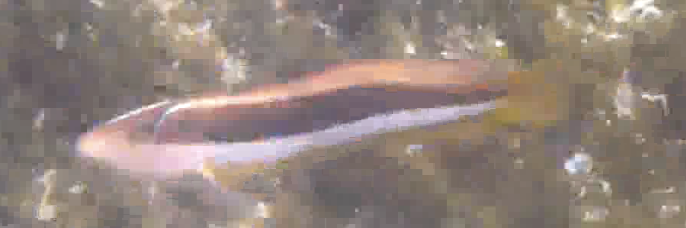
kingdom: Animalia
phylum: Chordata
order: Perciformes
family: Labridae
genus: Ophthalmolepis
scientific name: Ophthalmolepis lineolata
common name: Maori wrasse
